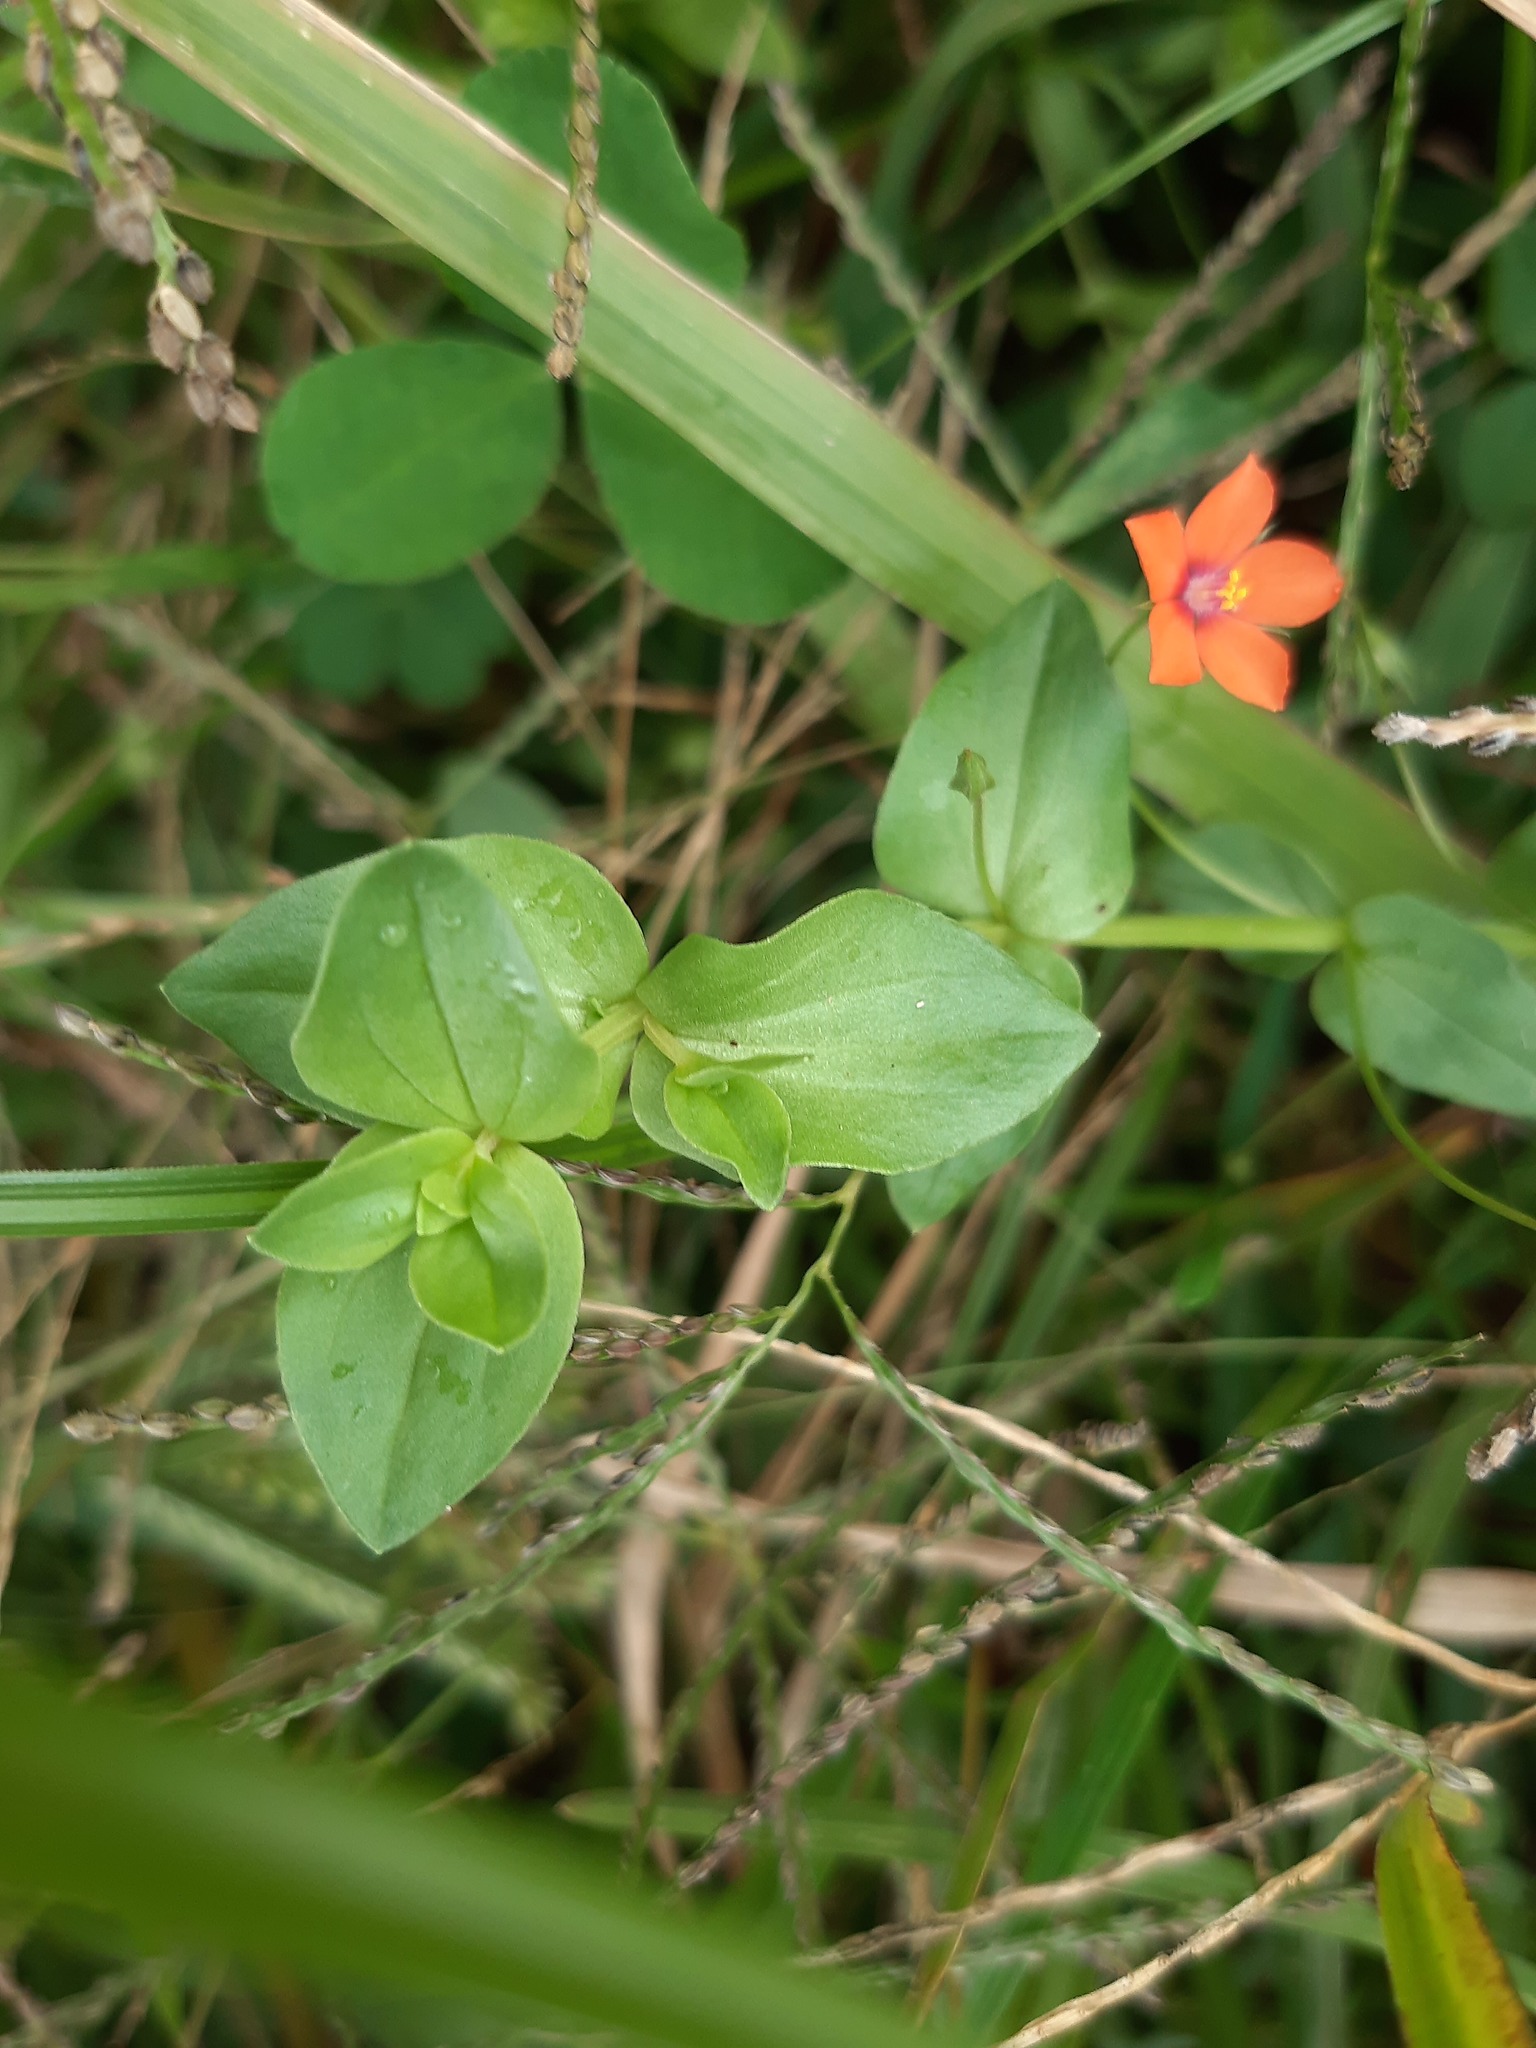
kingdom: Plantae
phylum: Tracheophyta
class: Magnoliopsida
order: Ericales
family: Primulaceae
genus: Lysimachia
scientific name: Lysimachia arvensis
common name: Scarlet pimpernel
